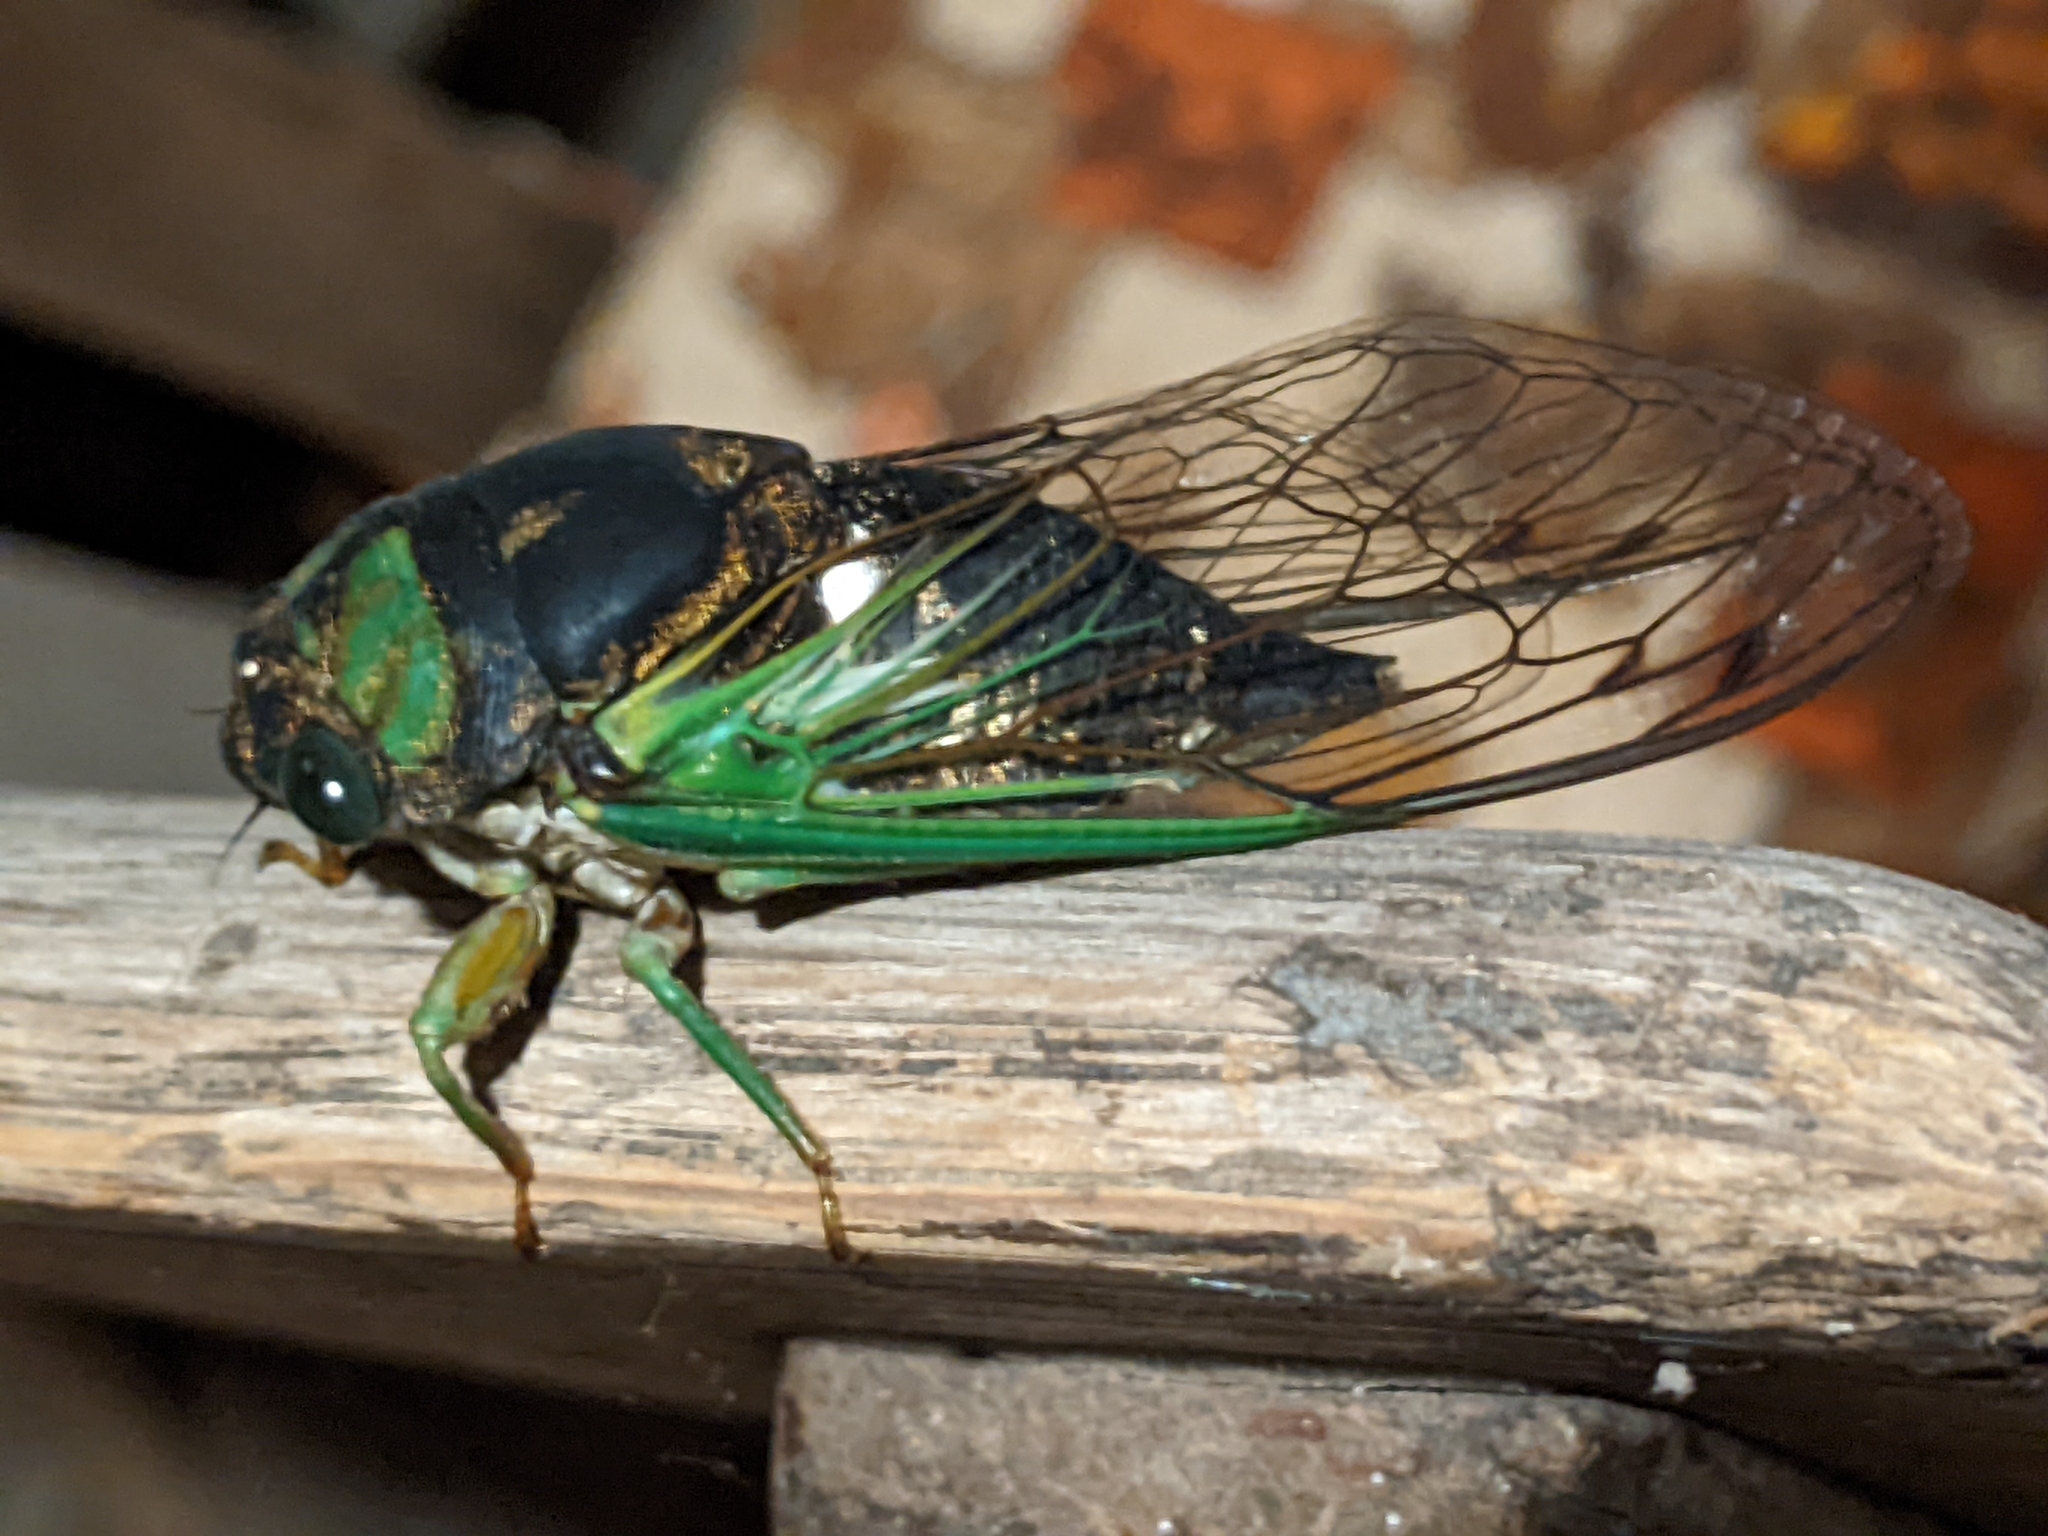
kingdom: Animalia
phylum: Arthropoda
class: Insecta
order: Hemiptera
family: Cicadidae
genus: Neotibicen
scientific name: Neotibicen tibicen
